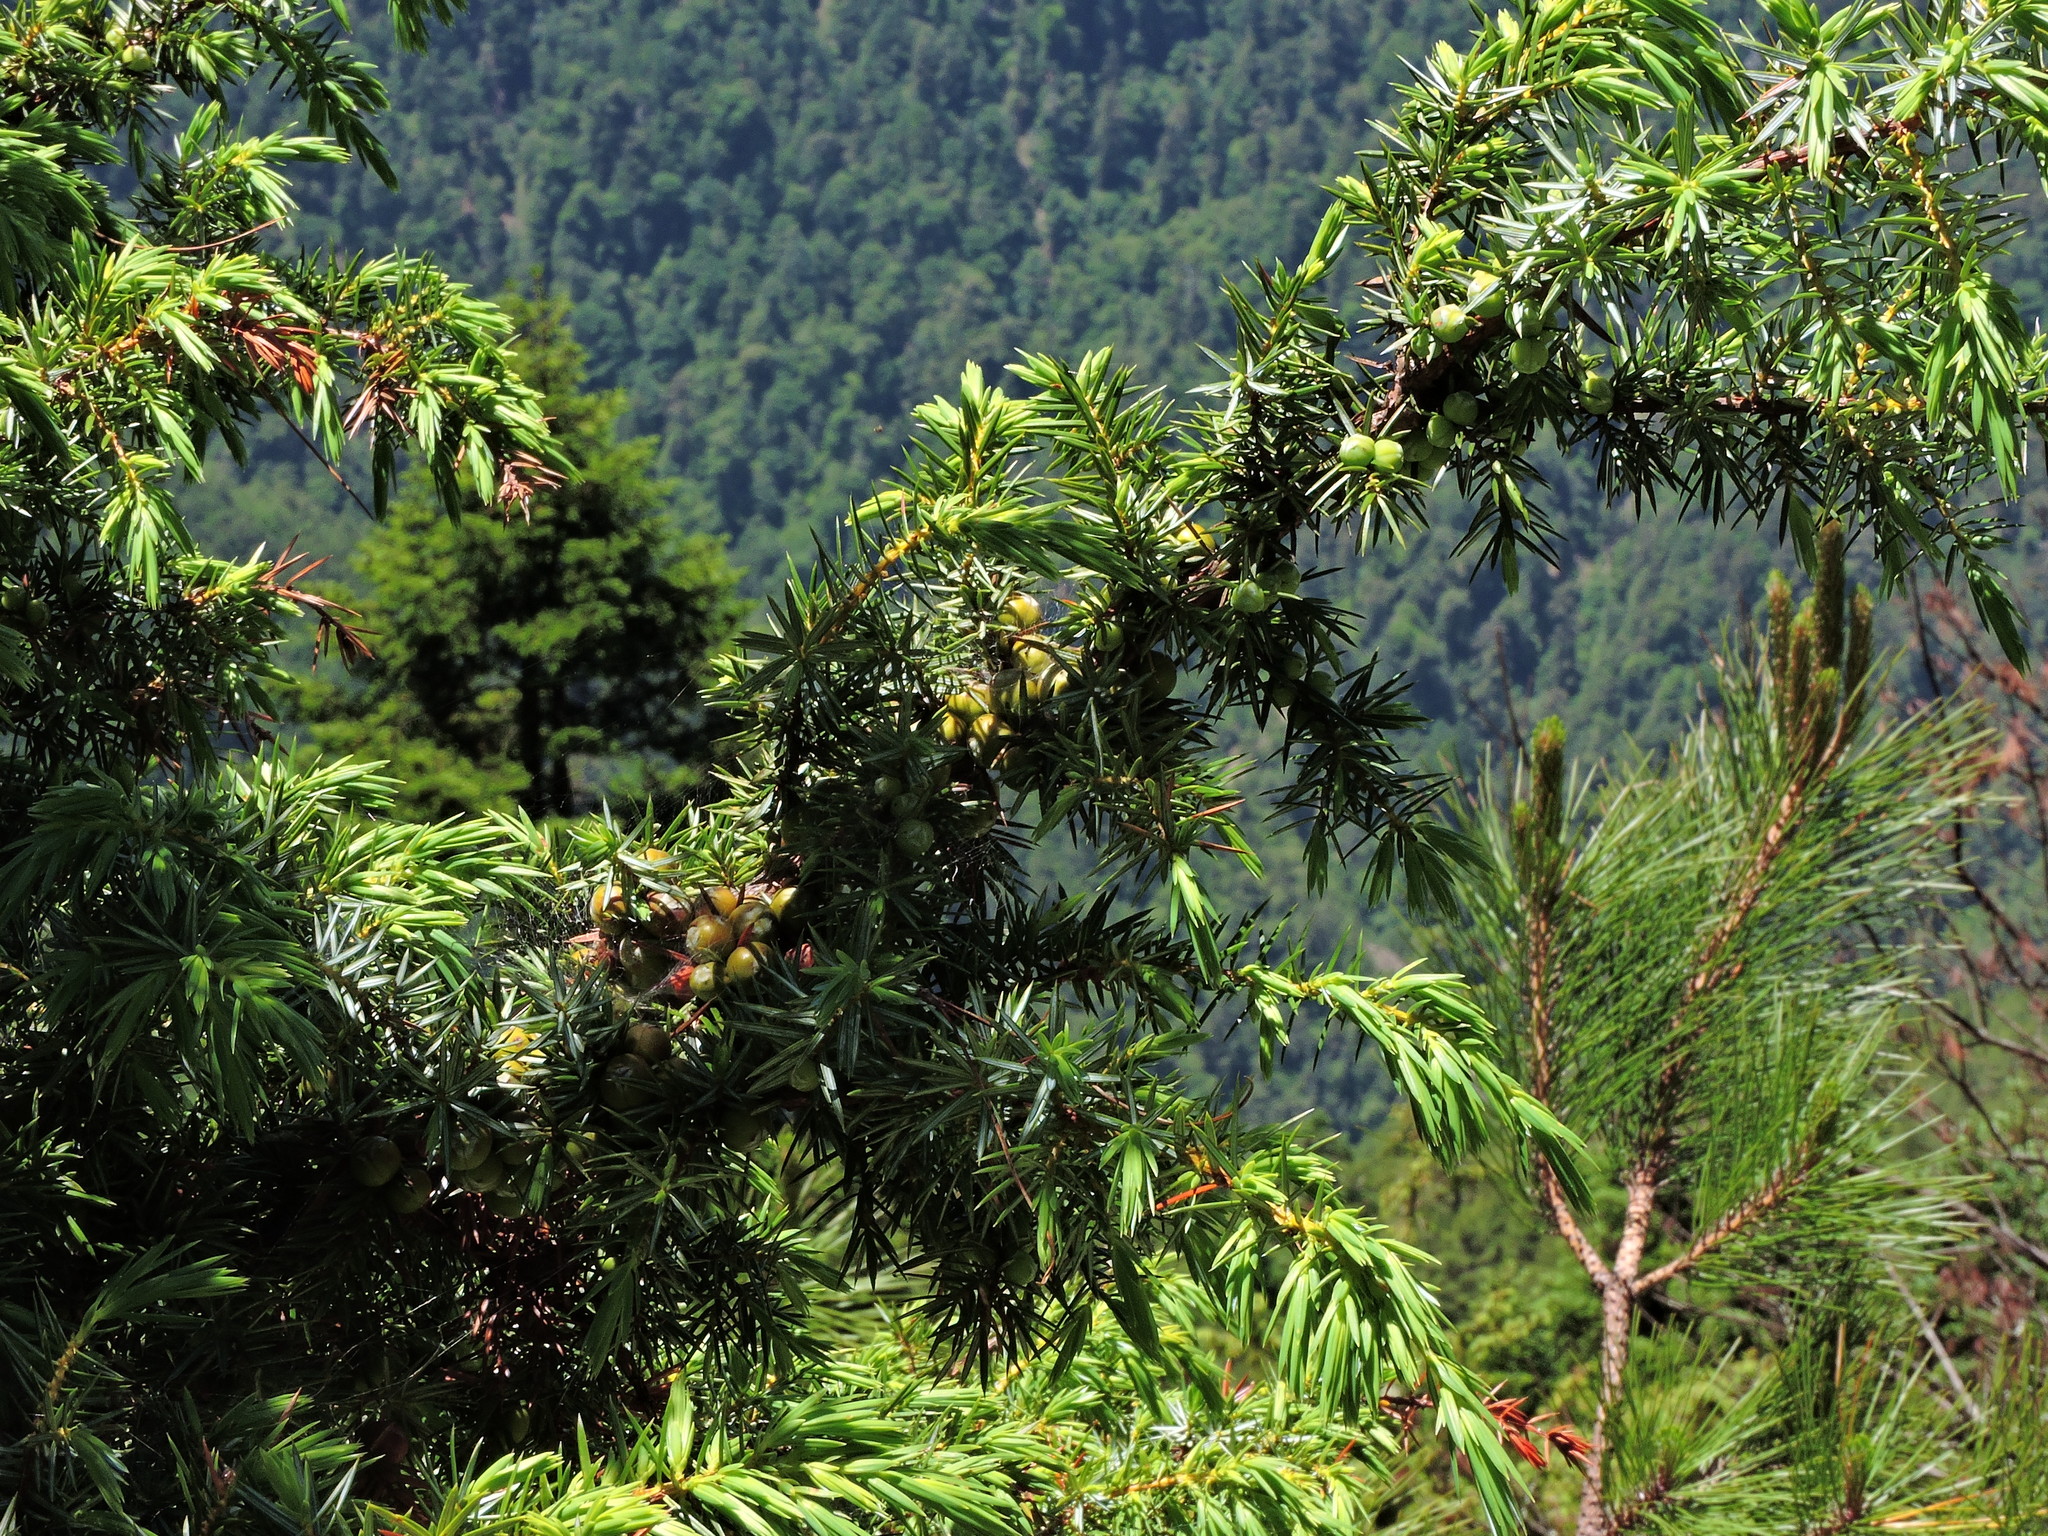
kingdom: Plantae
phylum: Tracheophyta
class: Pinopsida
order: Pinales
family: Cupressaceae
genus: Juniperus
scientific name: Juniperus formosana
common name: Formosan juniper
